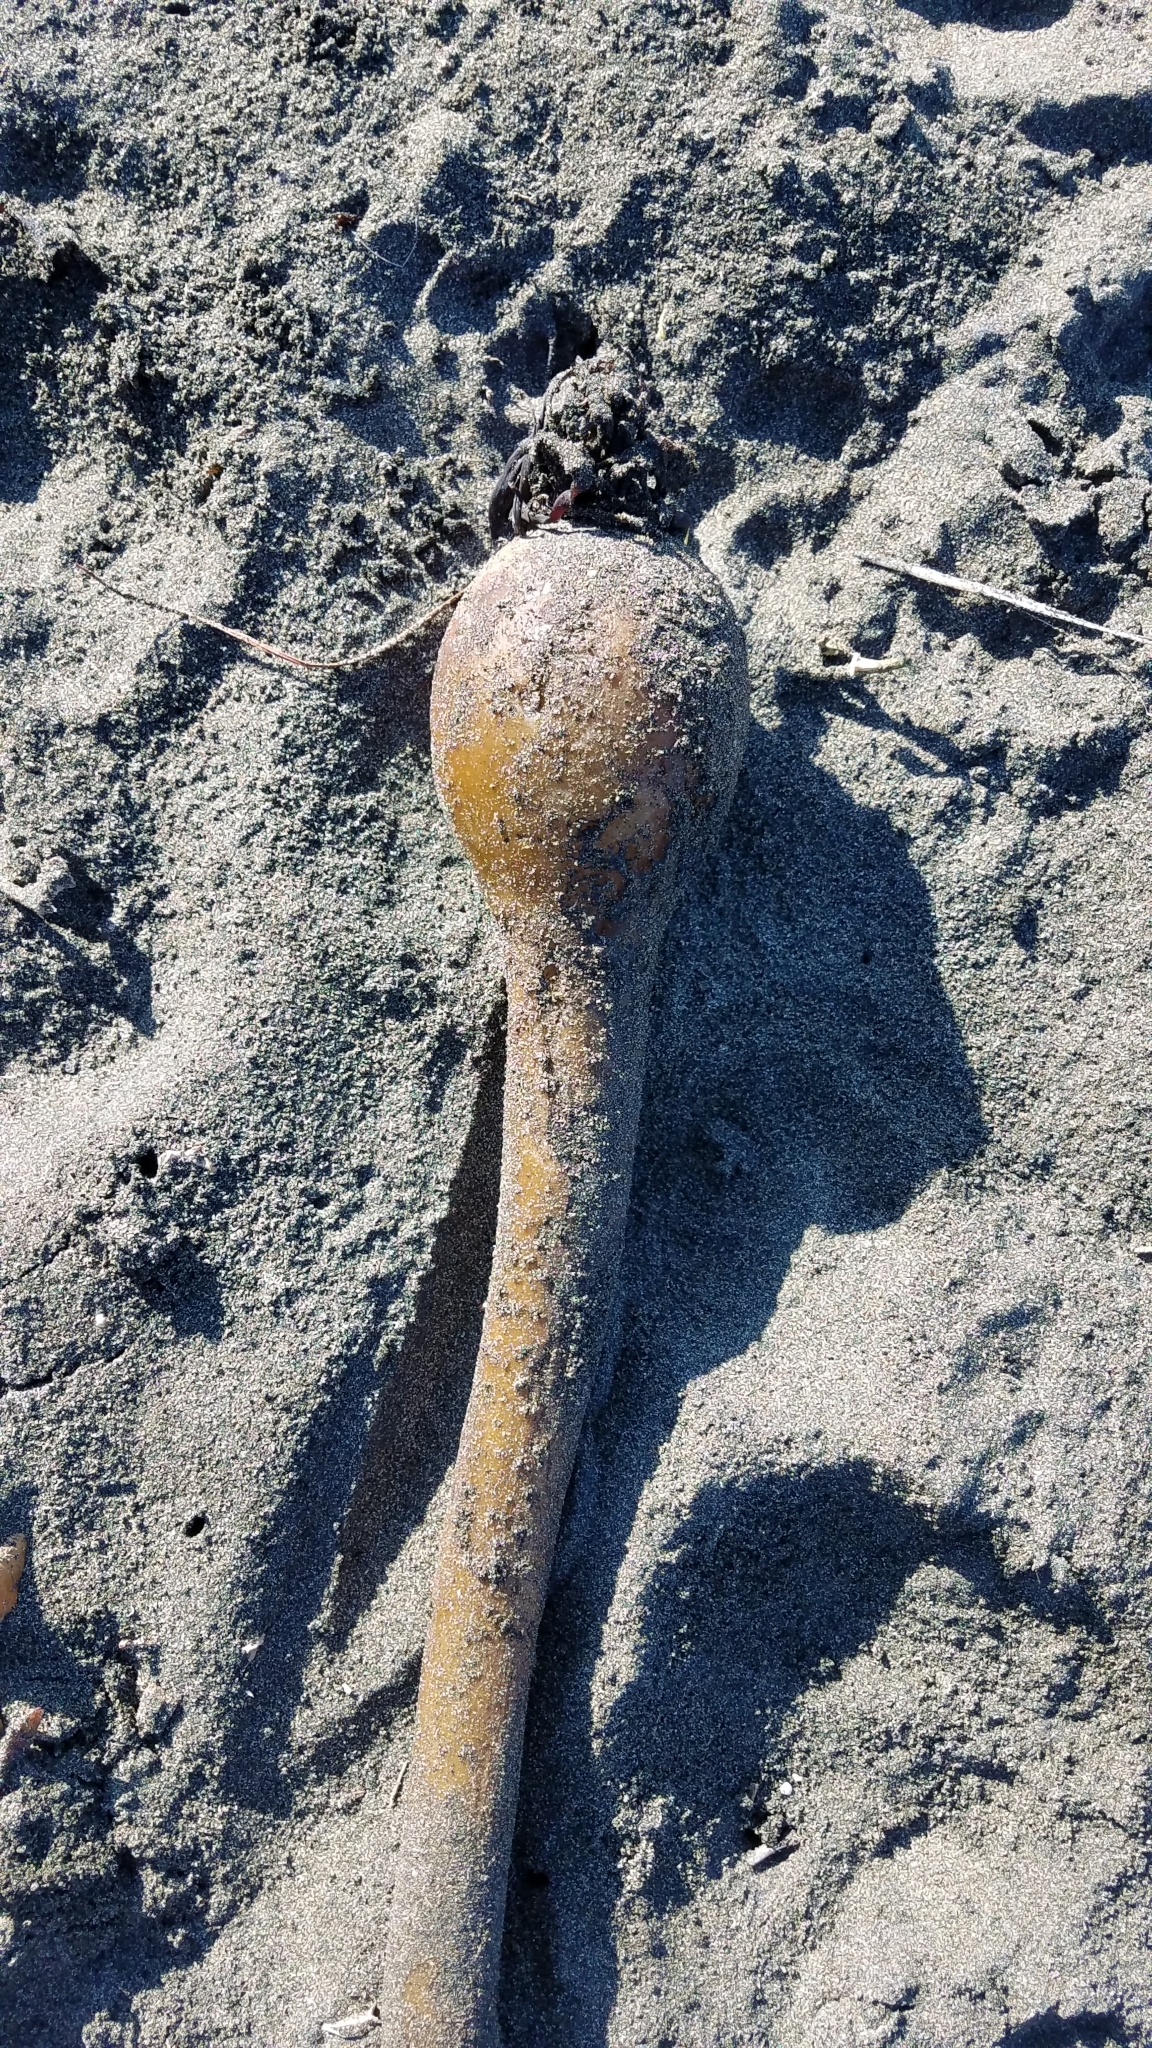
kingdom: Chromista
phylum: Ochrophyta
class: Phaeophyceae
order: Laminariales
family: Laminariaceae
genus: Nereocystis
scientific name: Nereocystis luetkeana
